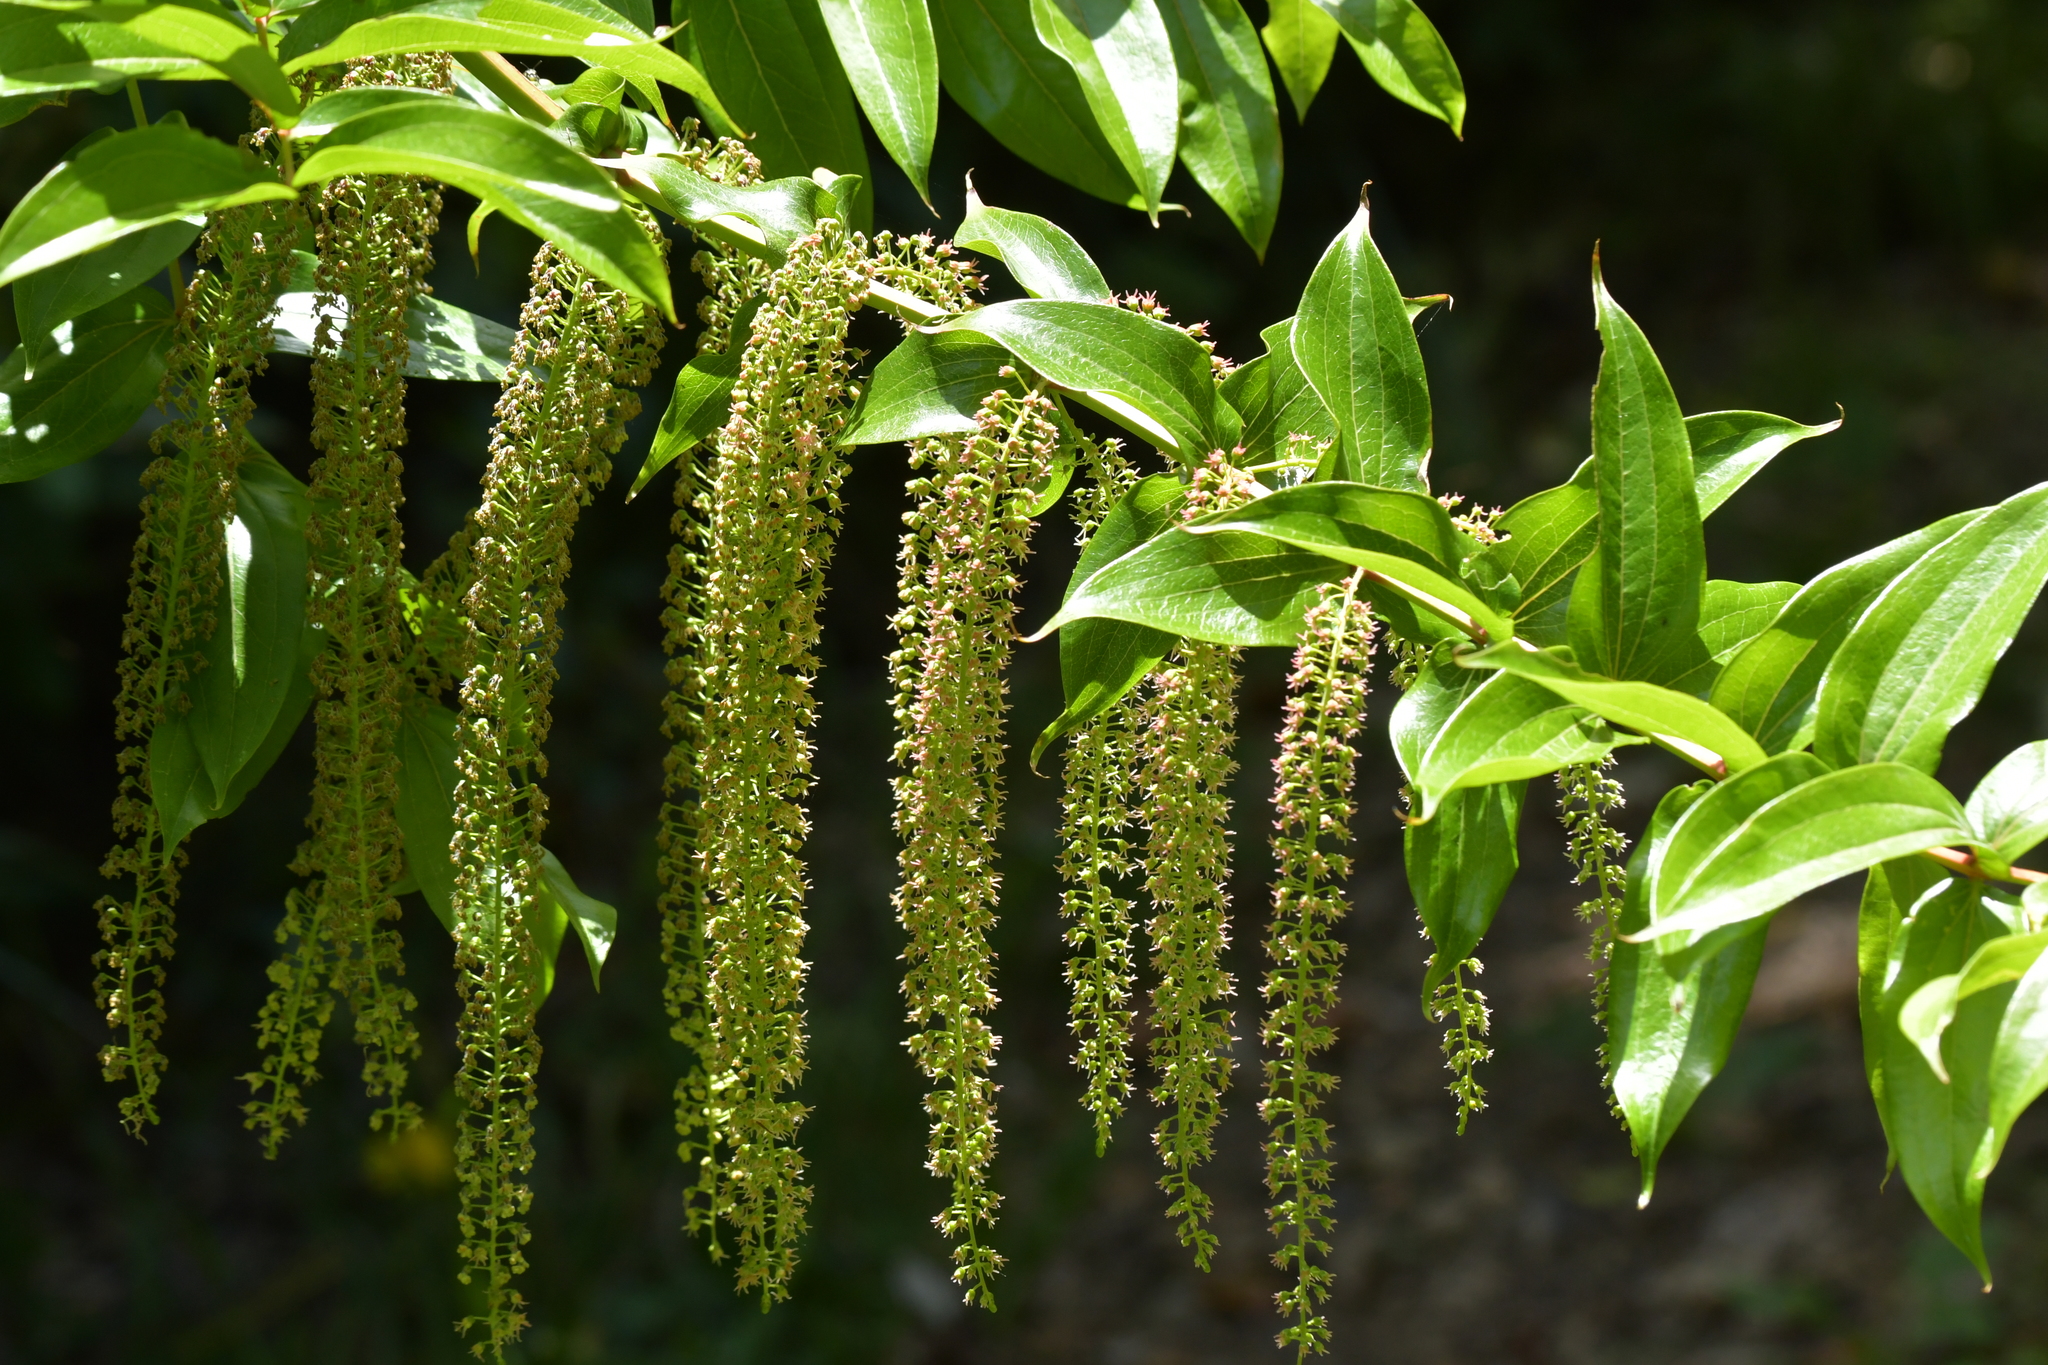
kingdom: Plantae
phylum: Tracheophyta
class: Magnoliopsida
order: Cucurbitales
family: Coriariaceae
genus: Coriaria
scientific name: Coriaria arborea
